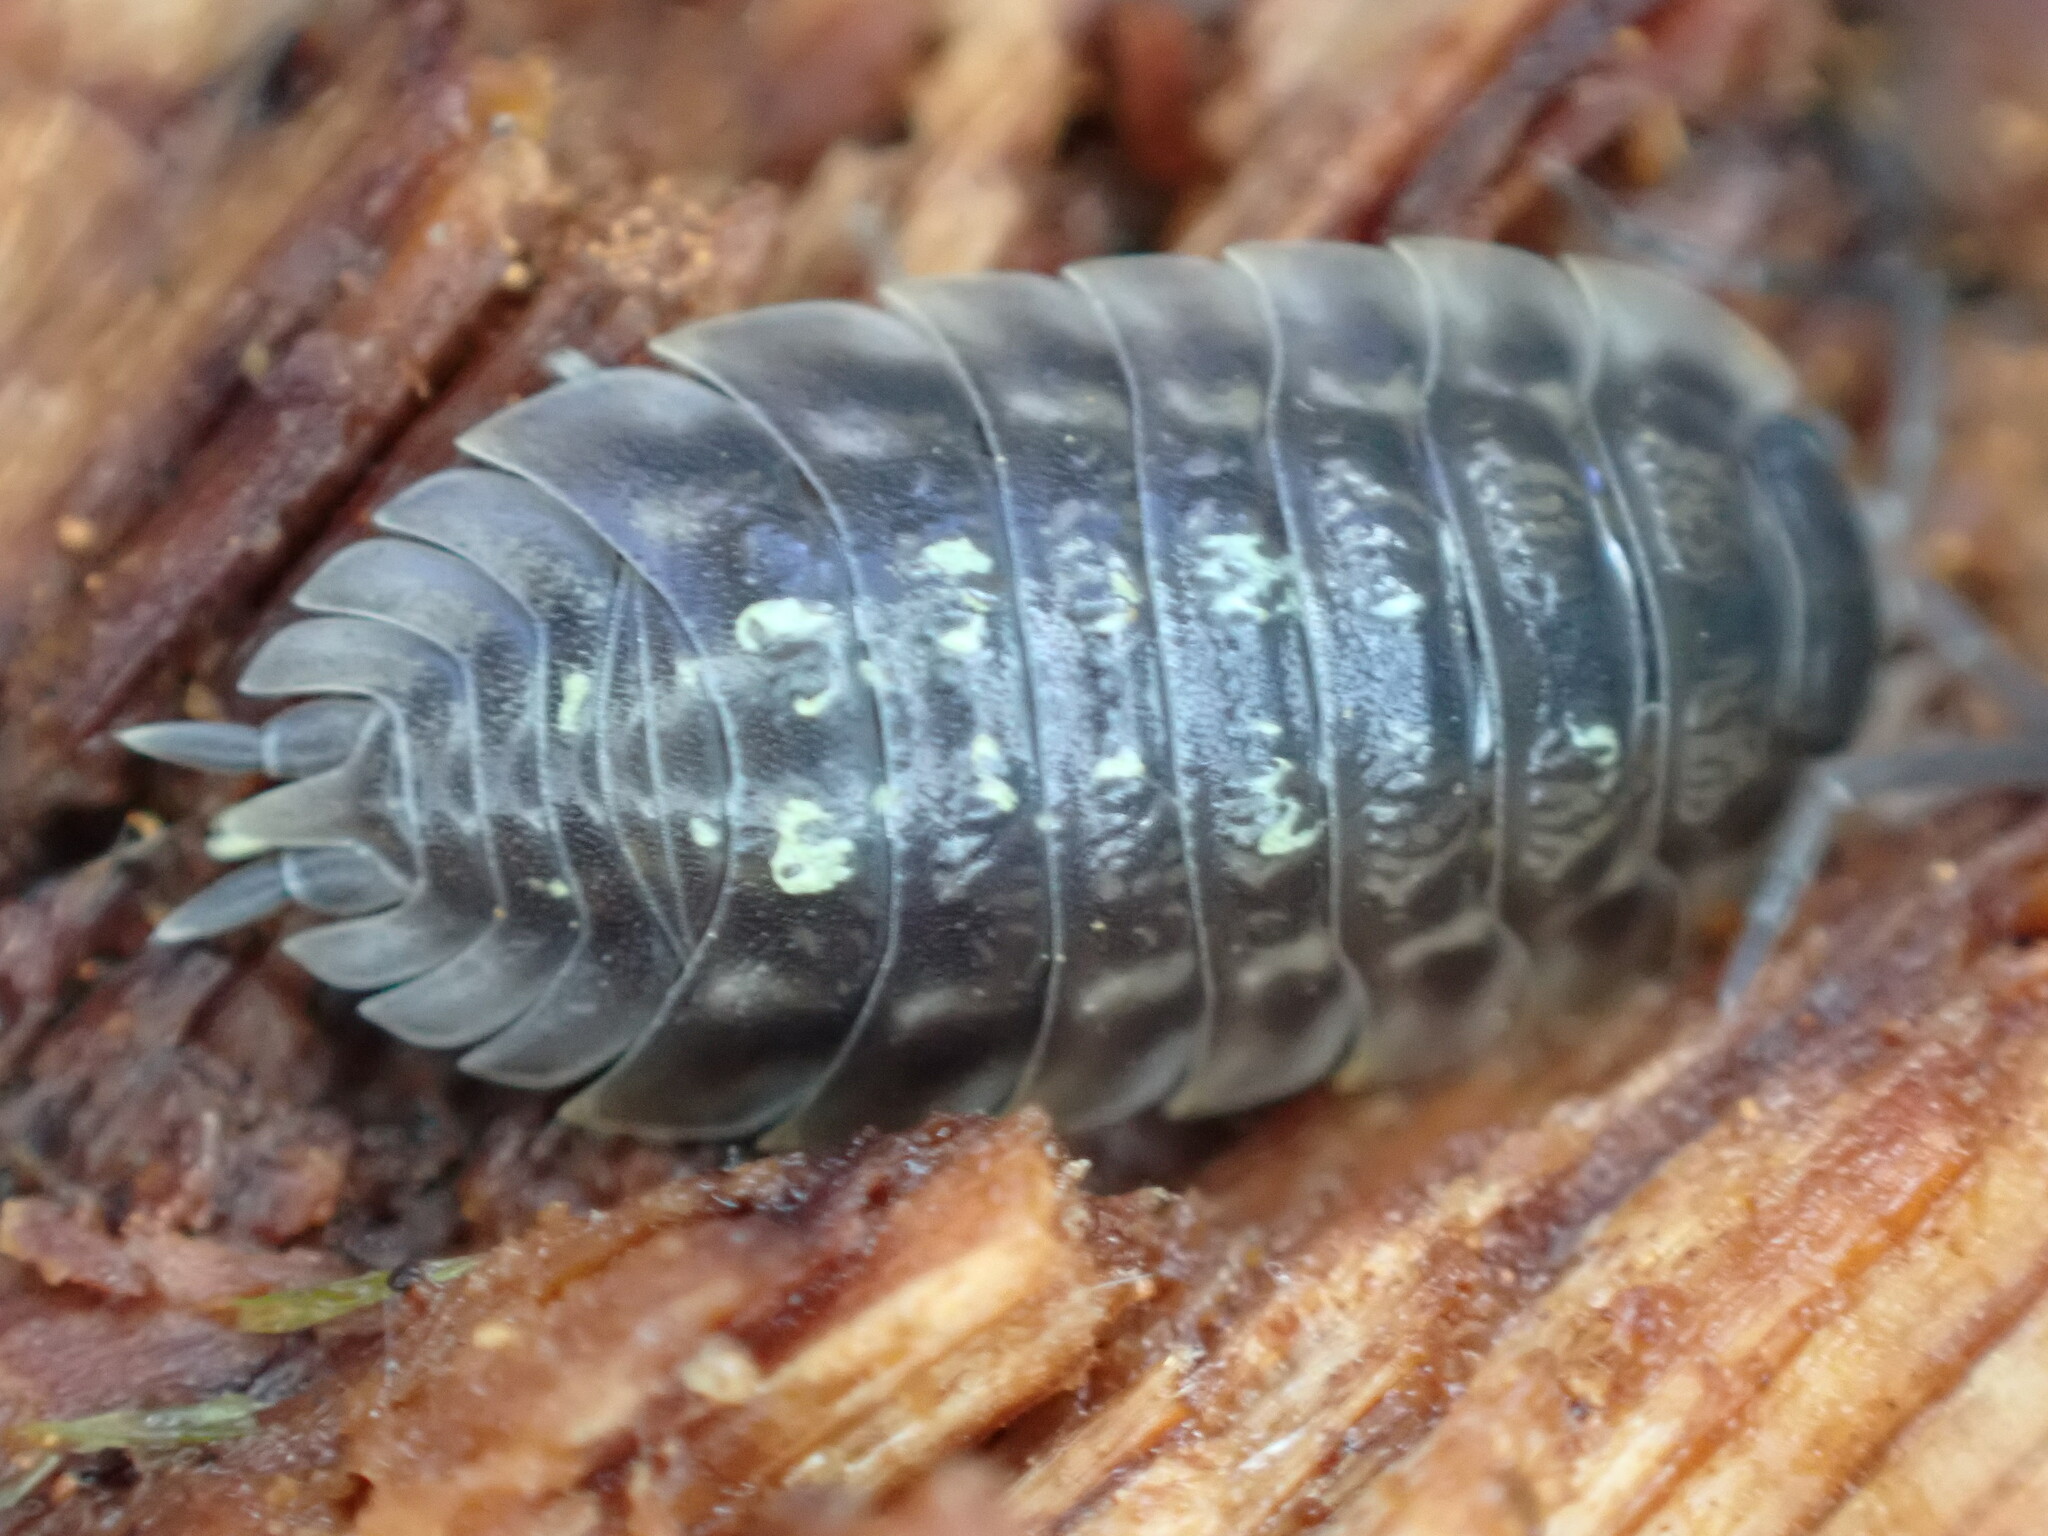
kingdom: Animalia
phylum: Arthropoda
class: Malacostraca
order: Isopoda
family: Oniscidae
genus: Oniscus
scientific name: Oniscus asellus
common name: Common shiny woodlouse
